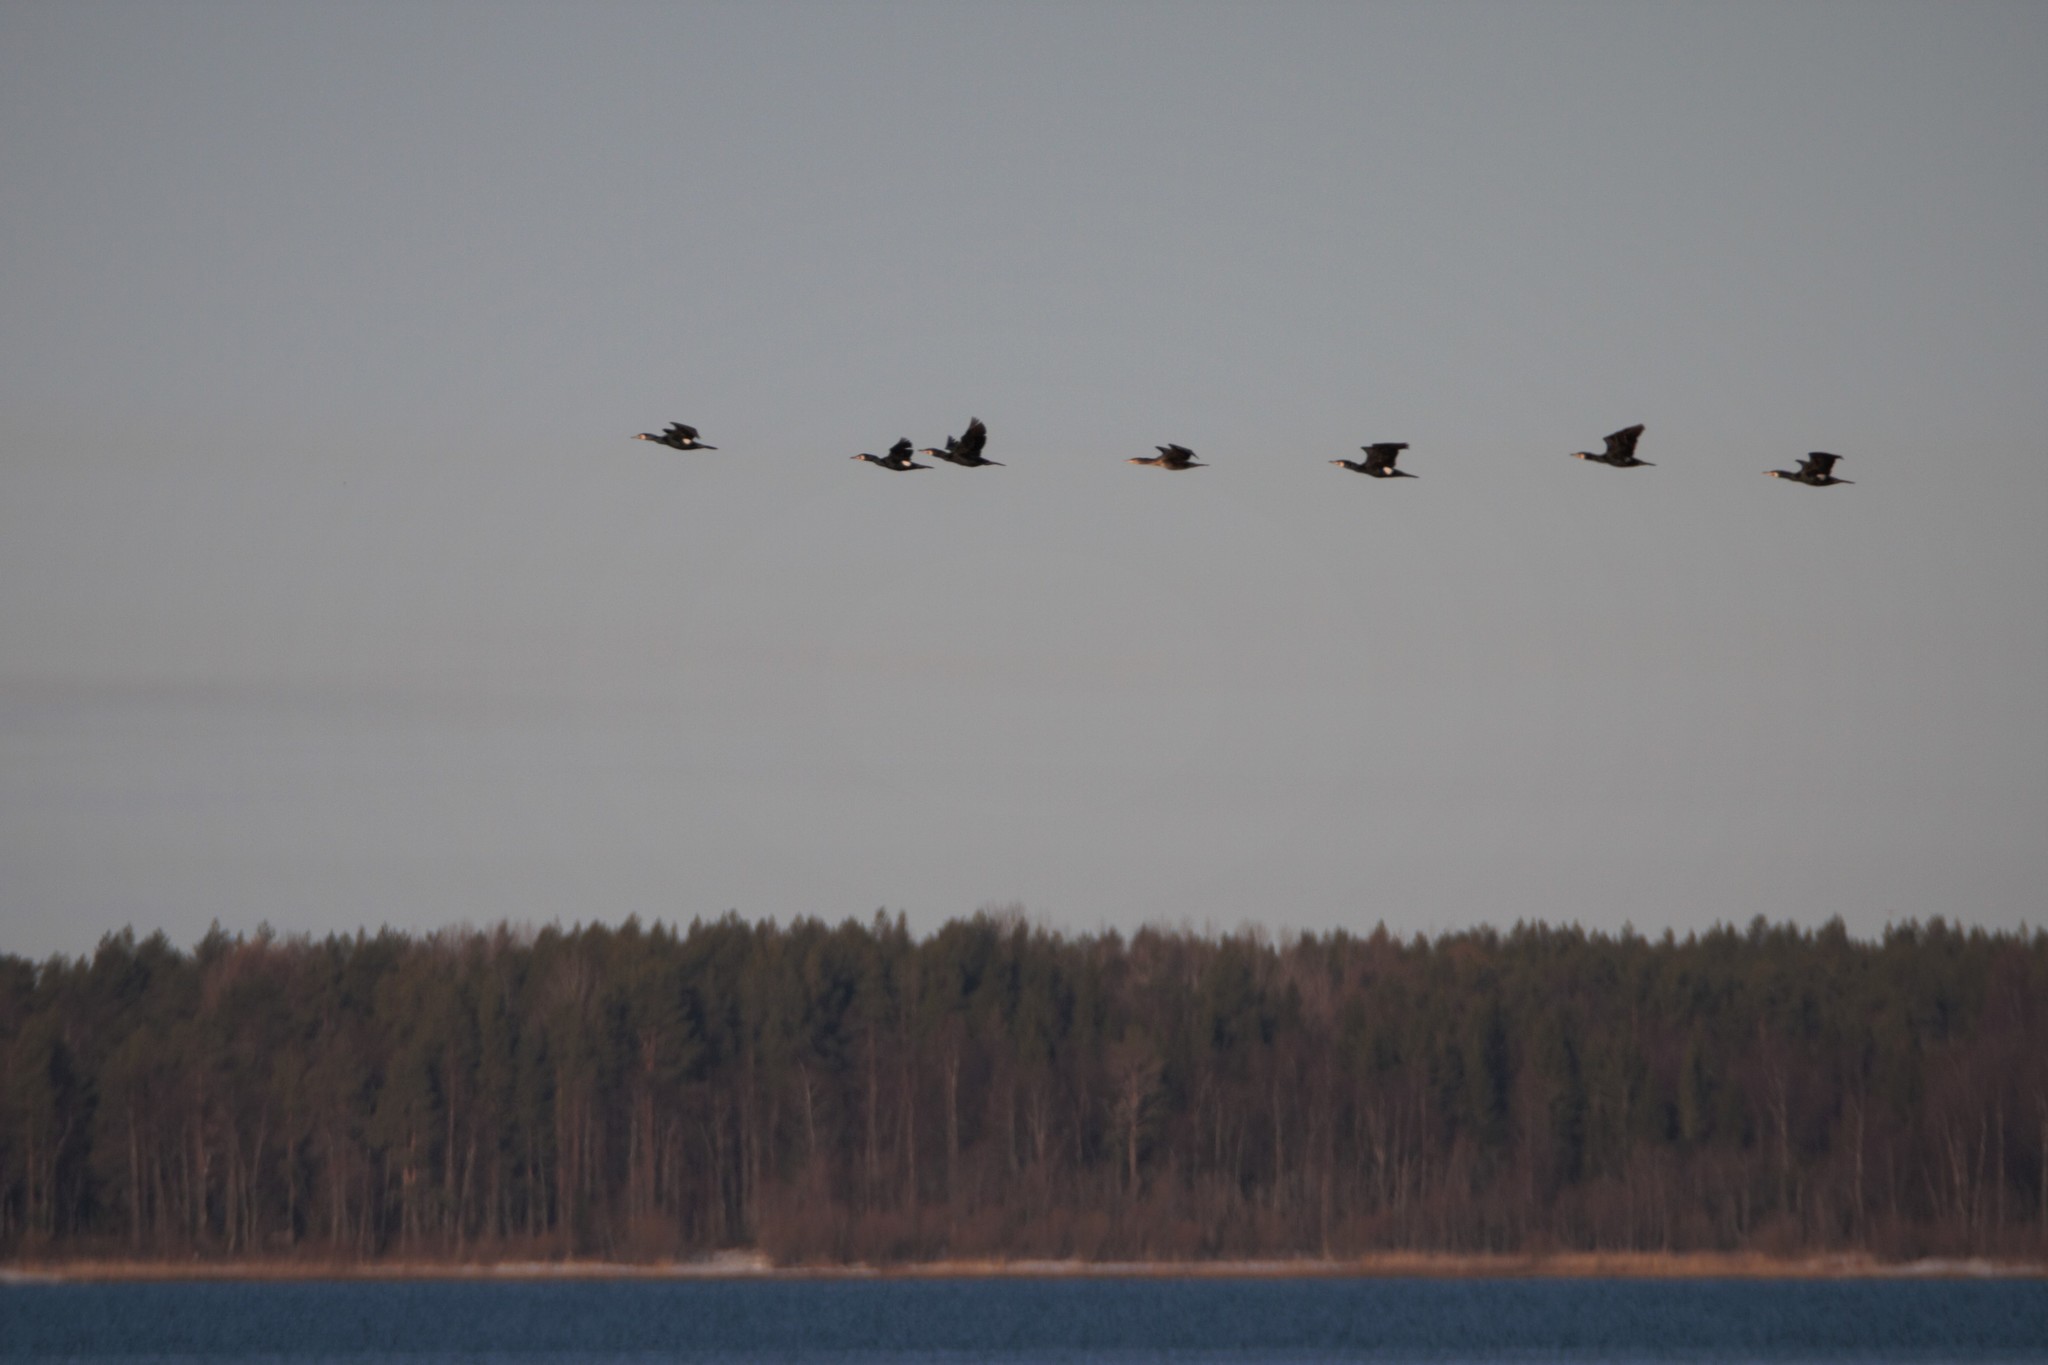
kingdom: Animalia
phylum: Chordata
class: Aves
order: Suliformes
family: Phalacrocoracidae
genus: Phalacrocorax
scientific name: Phalacrocorax carbo
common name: Great cormorant
